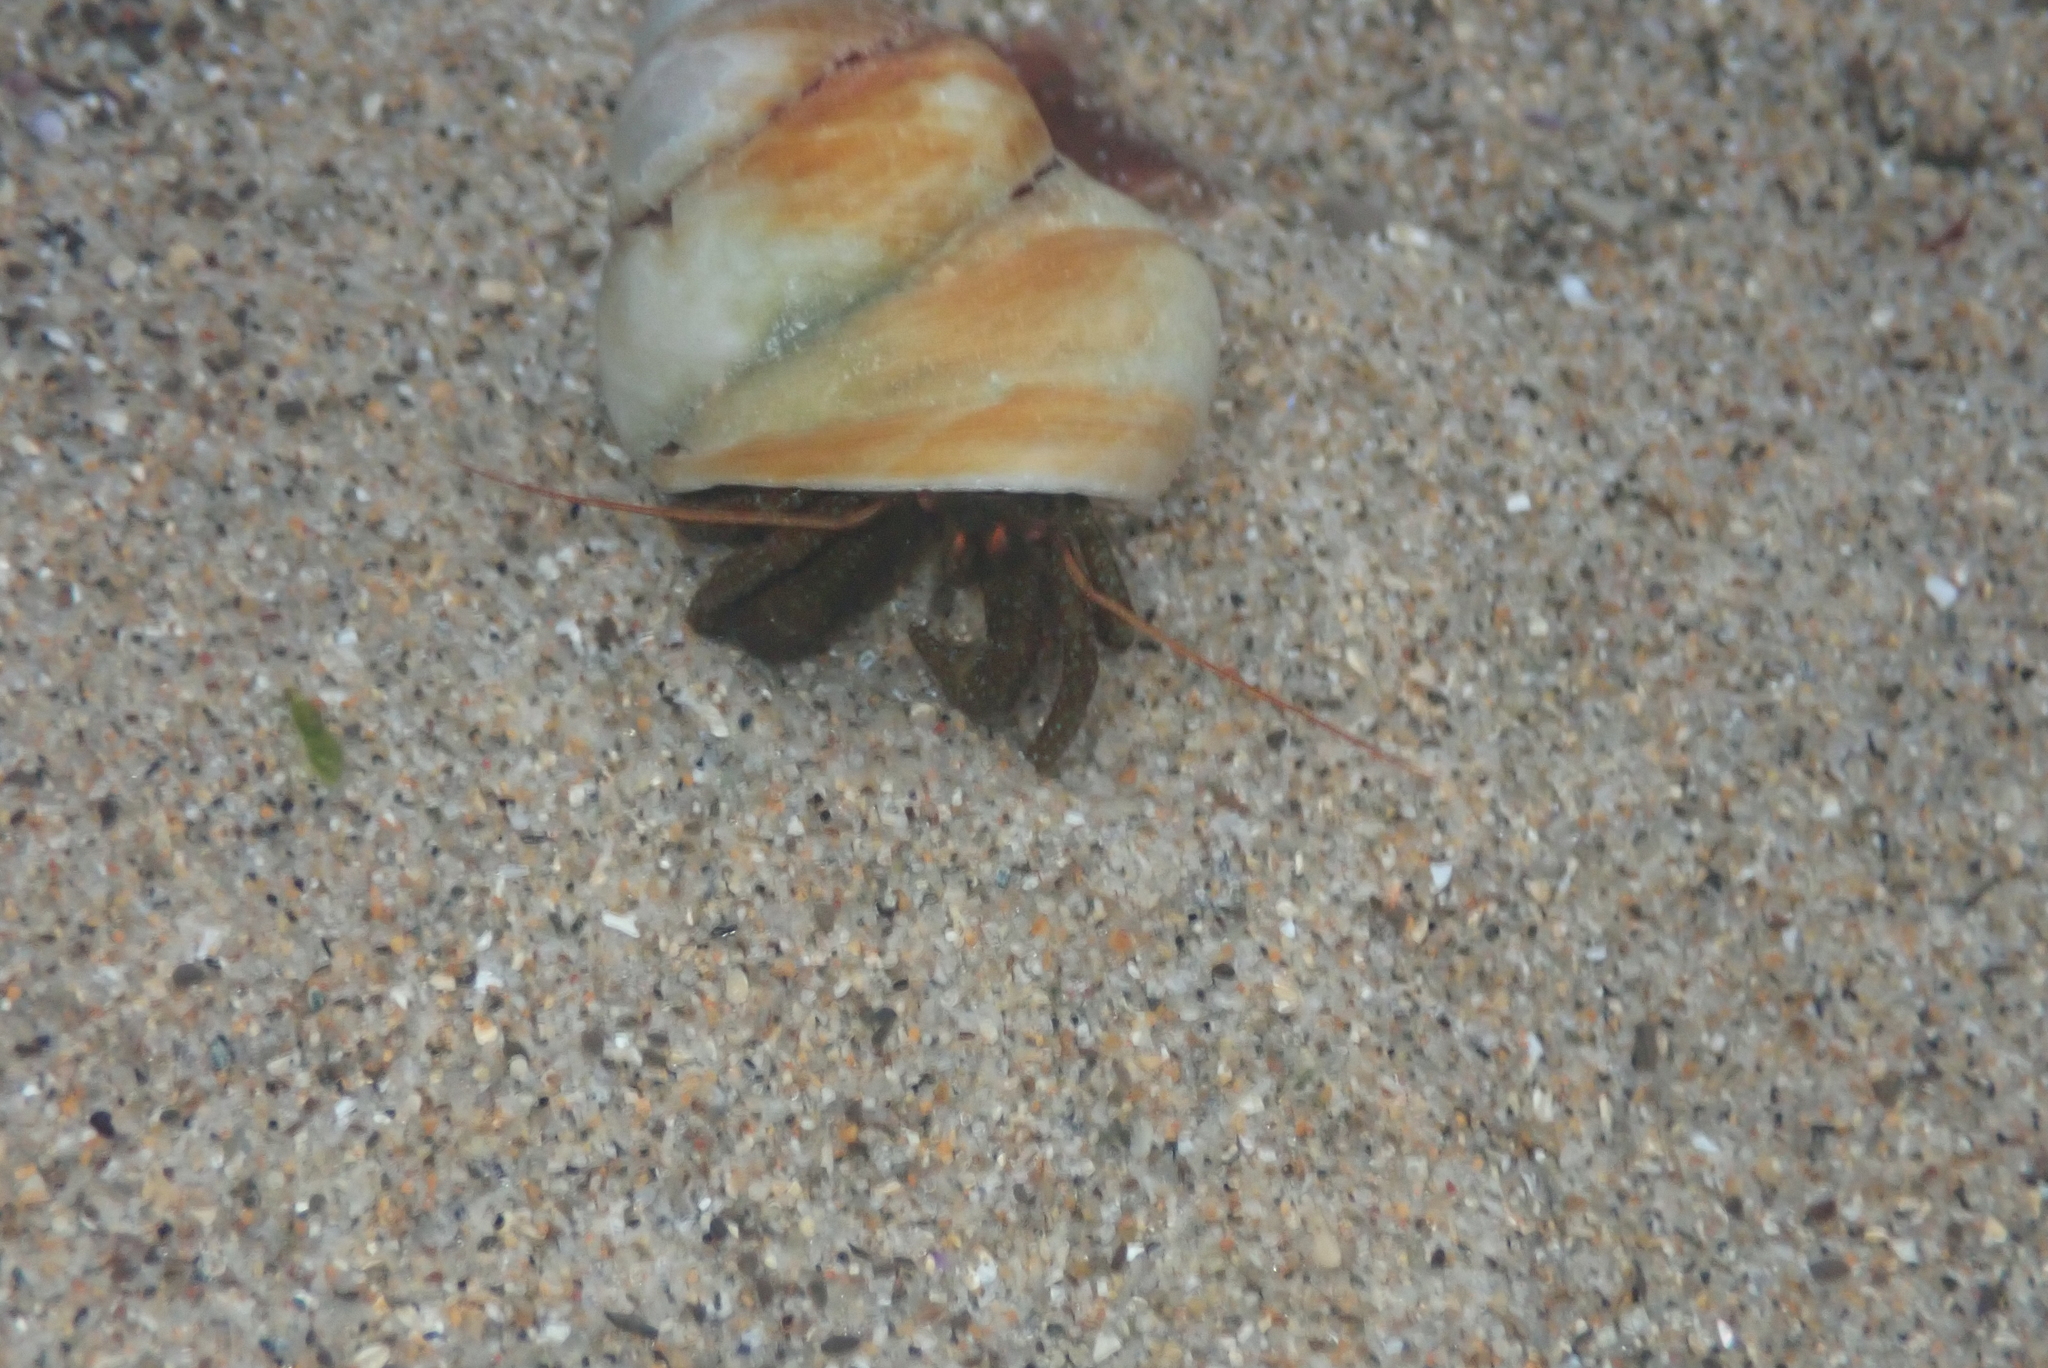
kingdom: Animalia
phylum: Arthropoda
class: Malacostraca
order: Decapoda
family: Paguridae
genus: Pagurus
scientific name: Pagurus granosimanus
